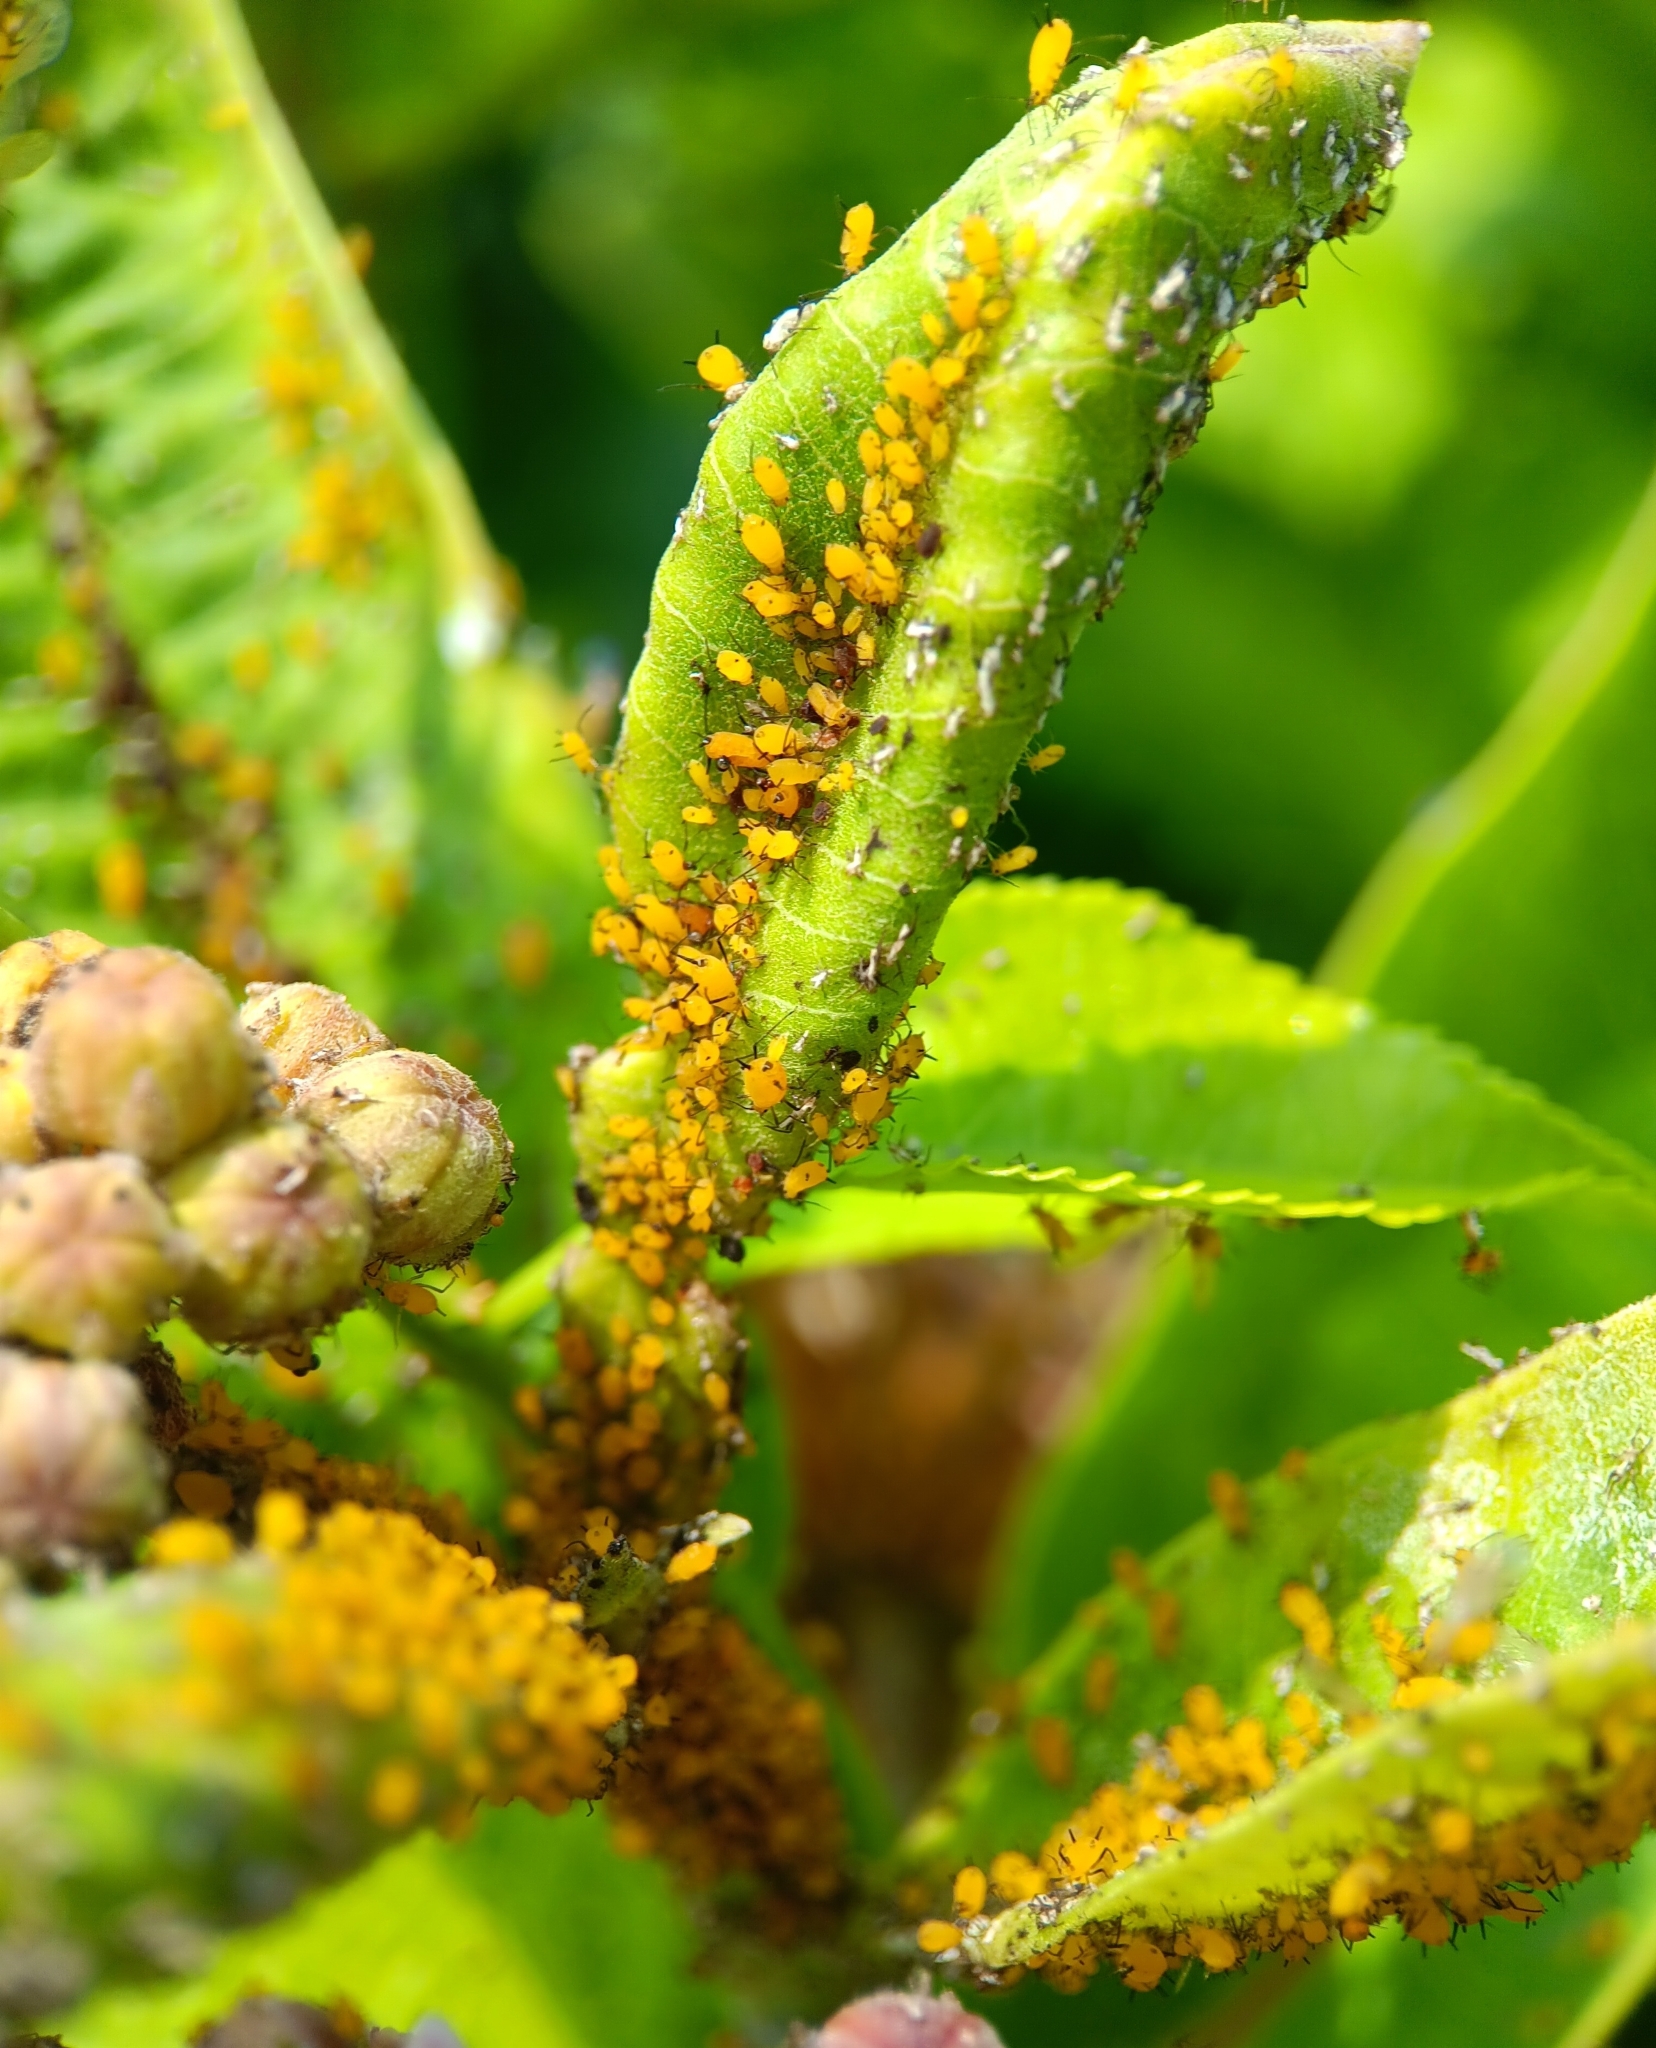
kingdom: Animalia
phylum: Arthropoda
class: Insecta
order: Hemiptera
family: Aphididae
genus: Aphis
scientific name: Aphis nerii
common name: Oleander aphid
